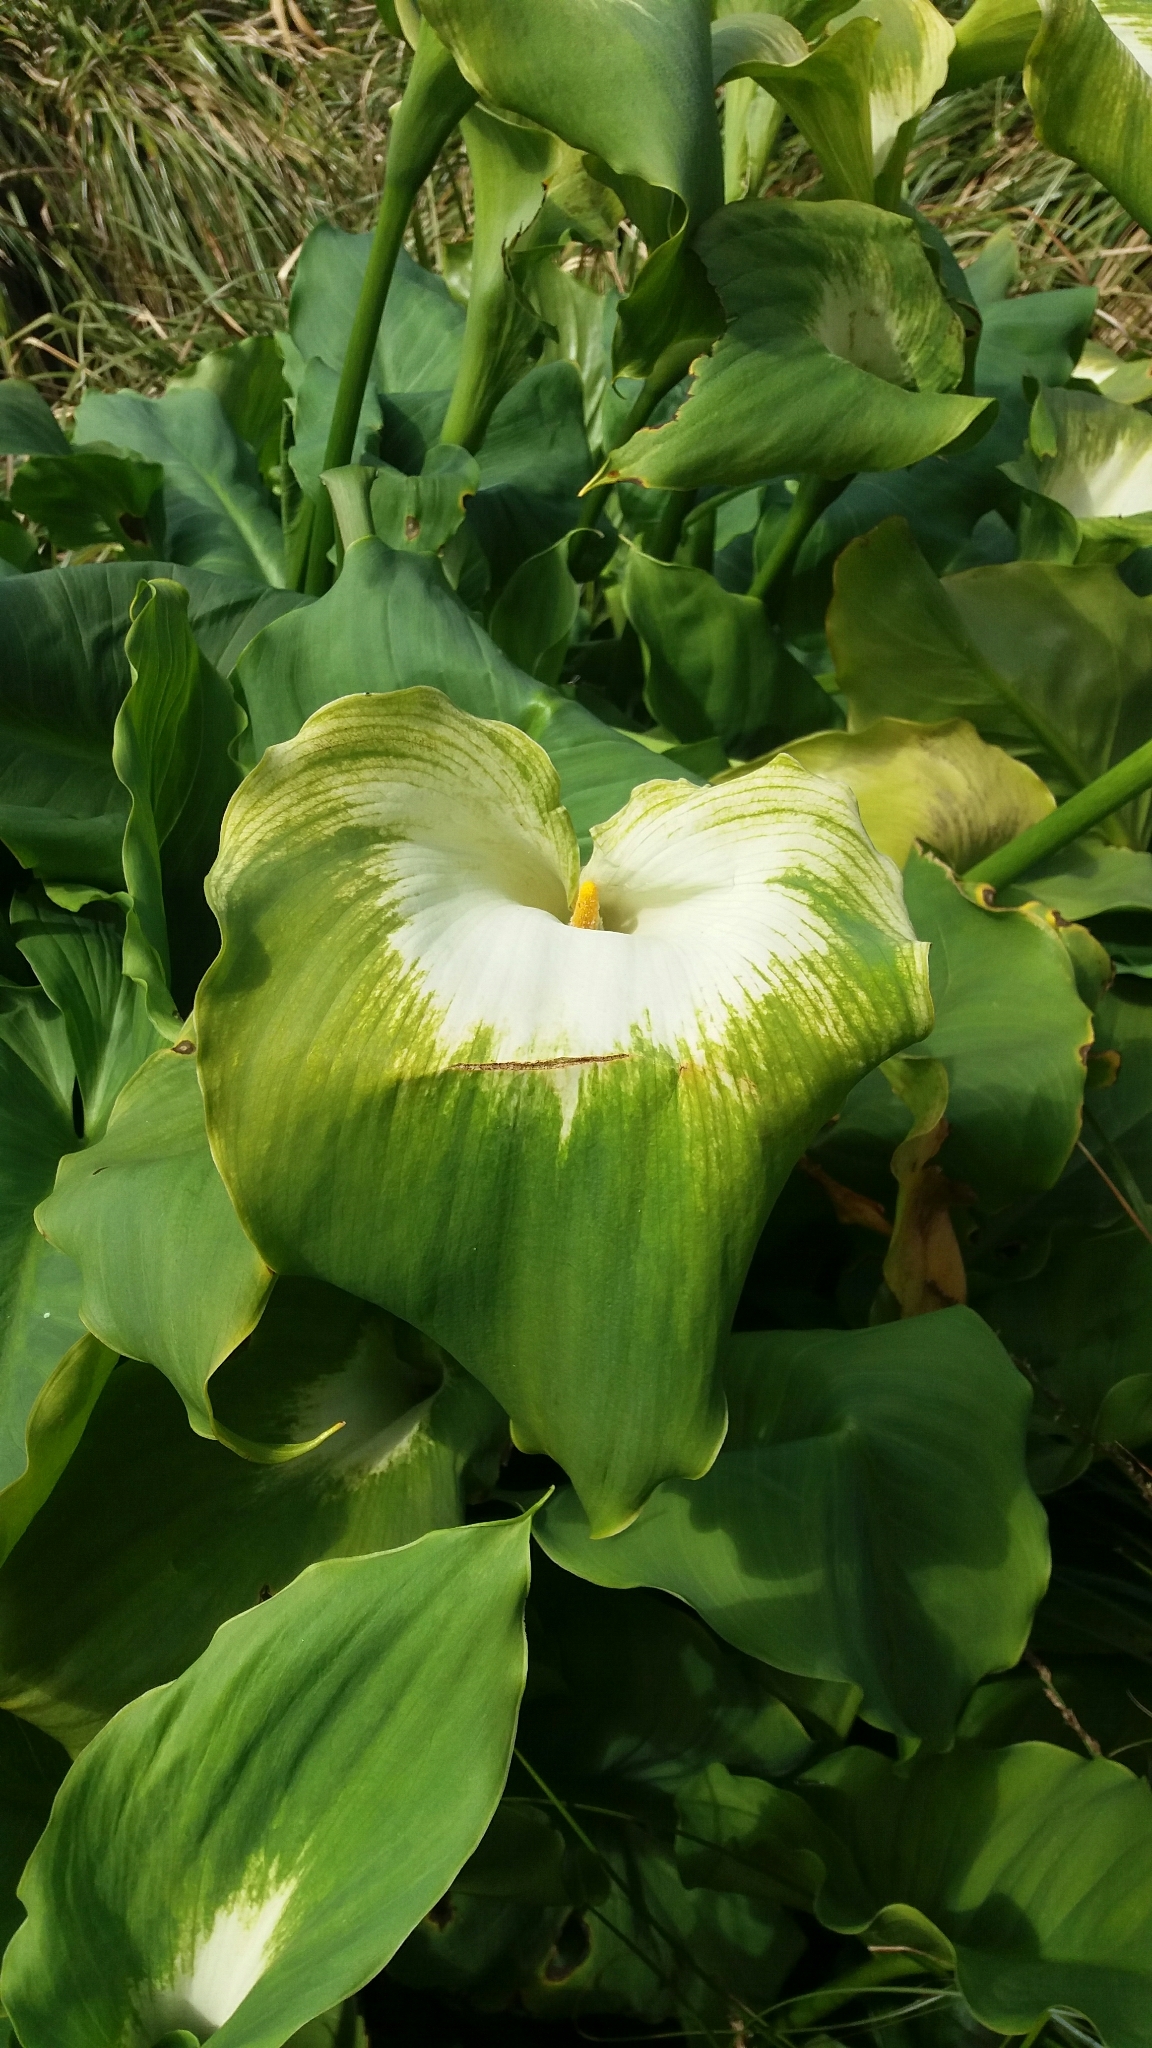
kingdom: Plantae
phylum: Tracheophyta
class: Liliopsida
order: Alismatales
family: Araceae
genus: Zantedeschia
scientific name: Zantedeschia aethiopica
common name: Altar-lily
